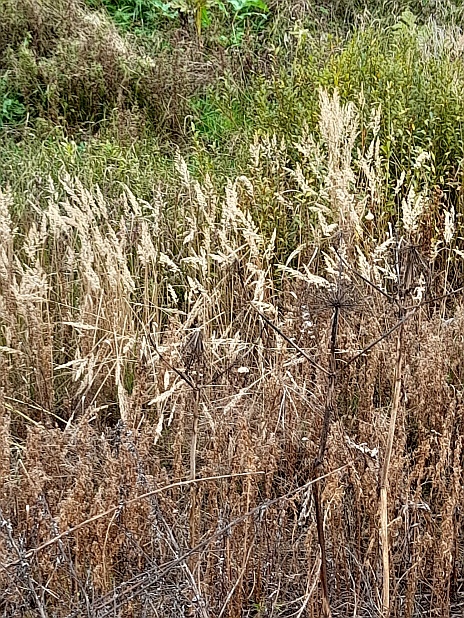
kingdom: Plantae
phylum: Tracheophyta
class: Liliopsida
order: Poales
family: Poaceae
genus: Calamagrostis
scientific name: Calamagrostis epigejos
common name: Wood small-reed
